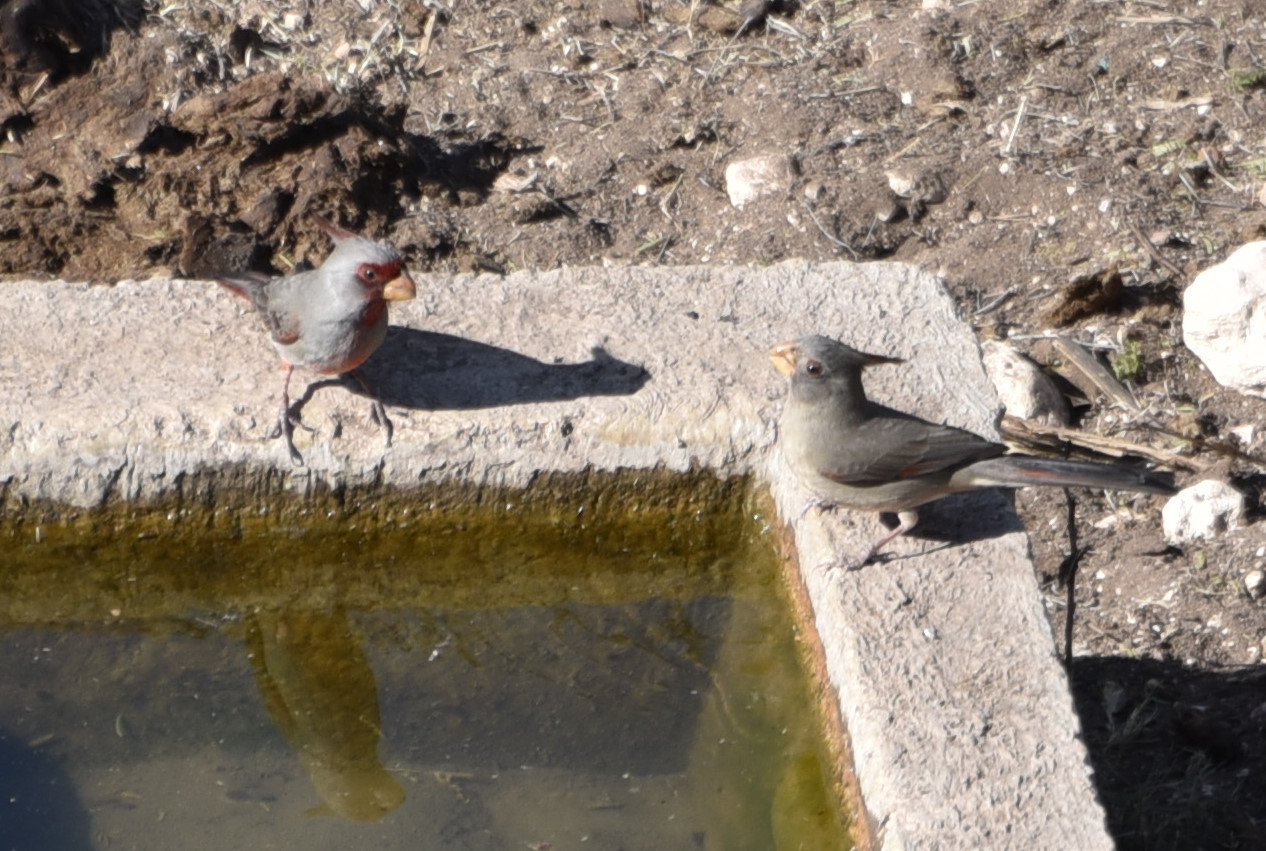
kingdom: Animalia
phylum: Chordata
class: Aves
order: Passeriformes
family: Cardinalidae
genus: Cardinalis
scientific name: Cardinalis sinuatus
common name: Pyrrhuloxia
